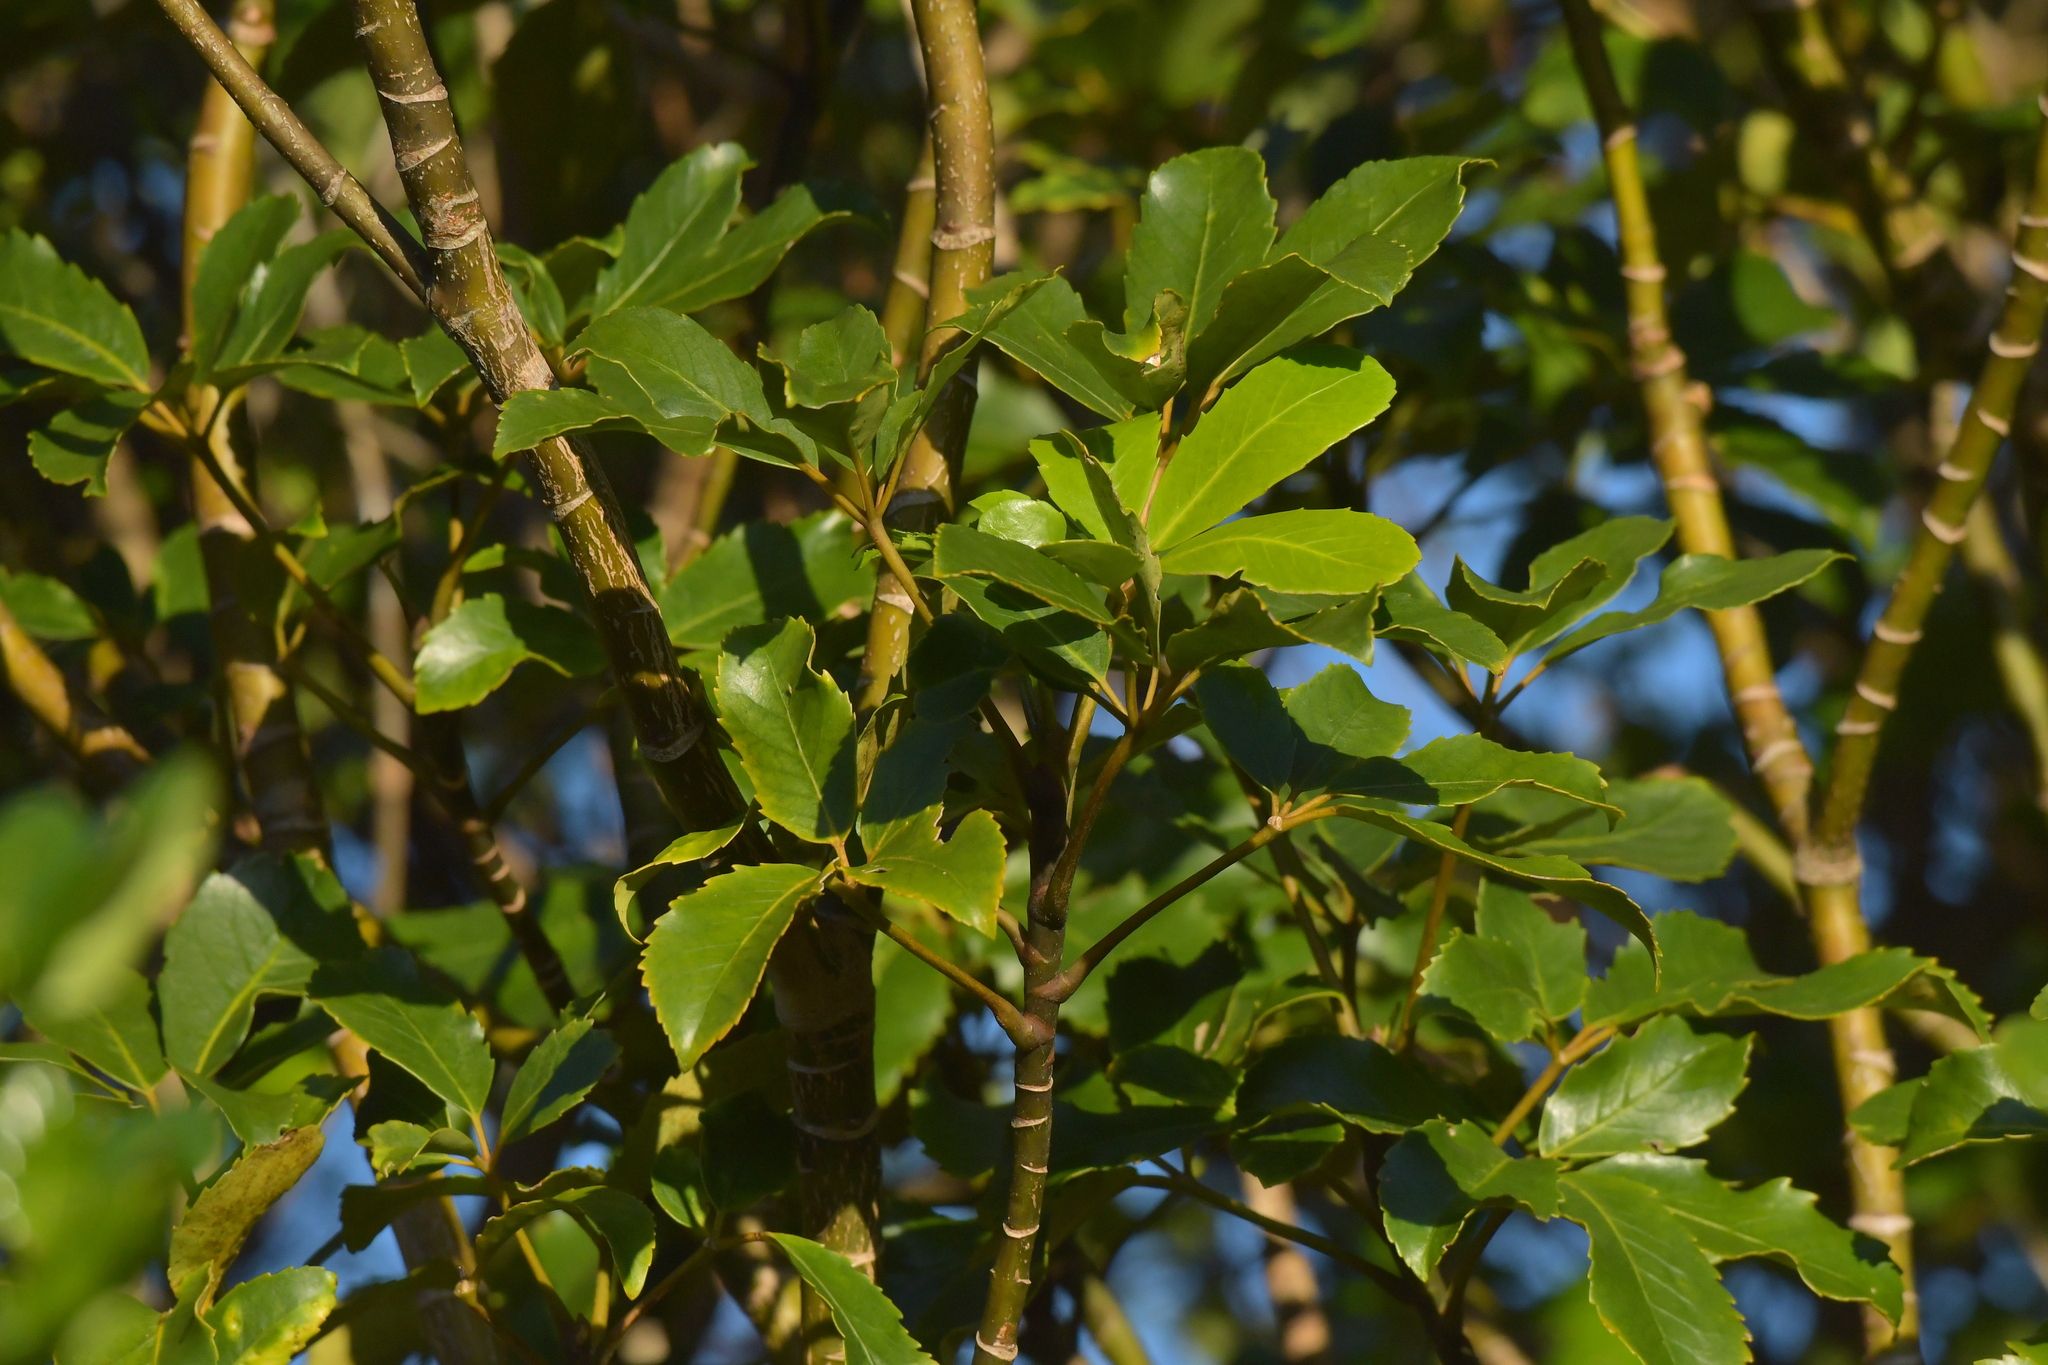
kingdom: Plantae
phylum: Tracheophyta
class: Magnoliopsida
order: Apiales
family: Araliaceae
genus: Neopanax
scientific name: Neopanax arboreus
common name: Five-fingers
